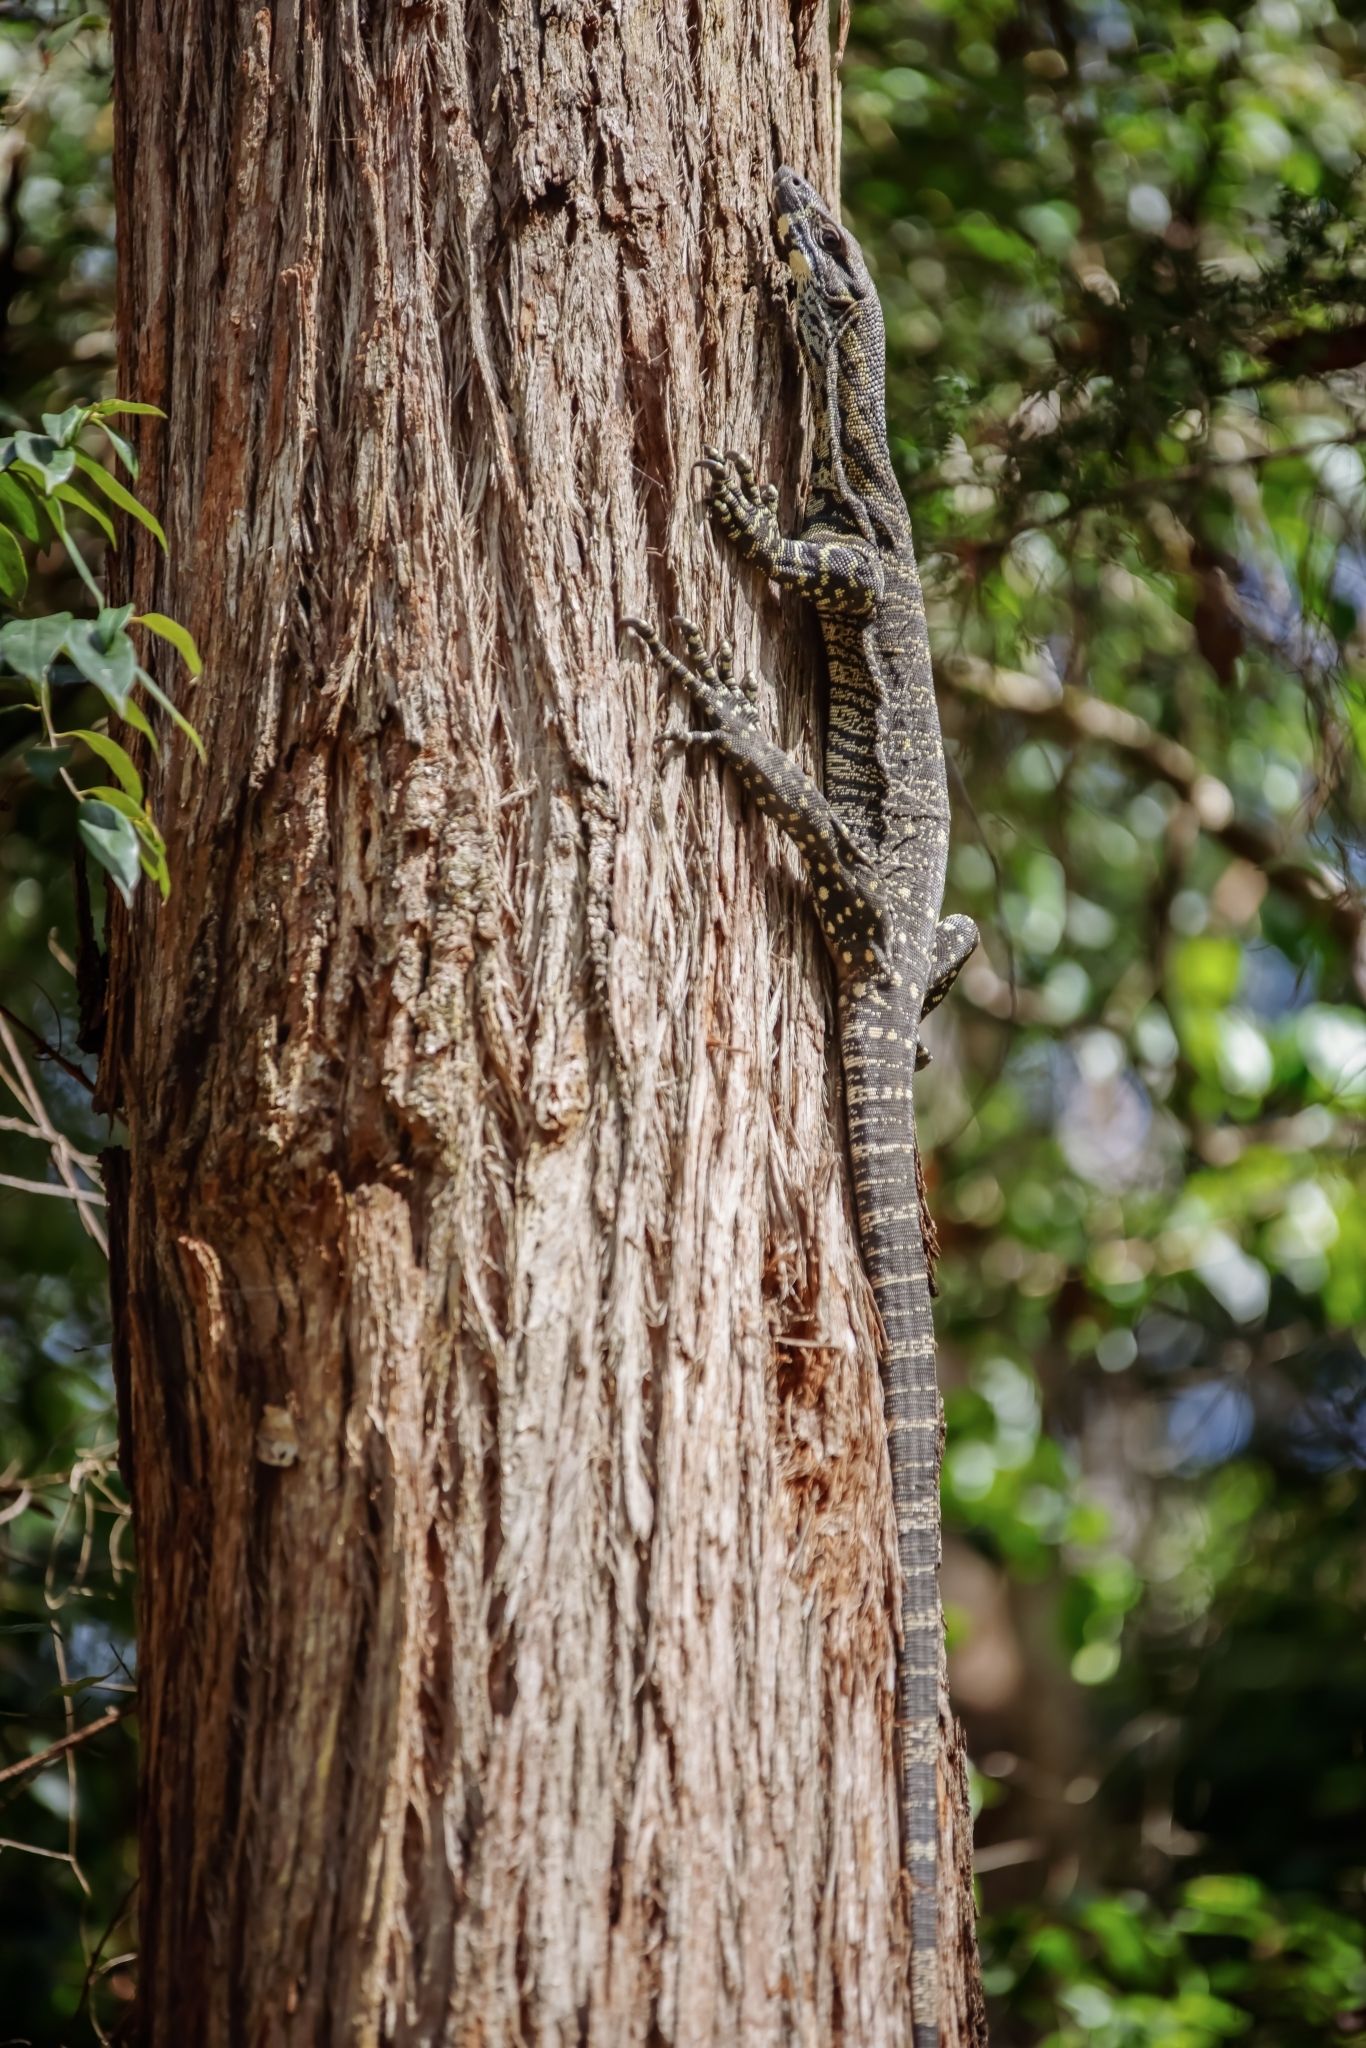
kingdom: Animalia
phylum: Chordata
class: Squamata
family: Varanidae
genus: Varanus
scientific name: Varanus varius
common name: Lace monitor
